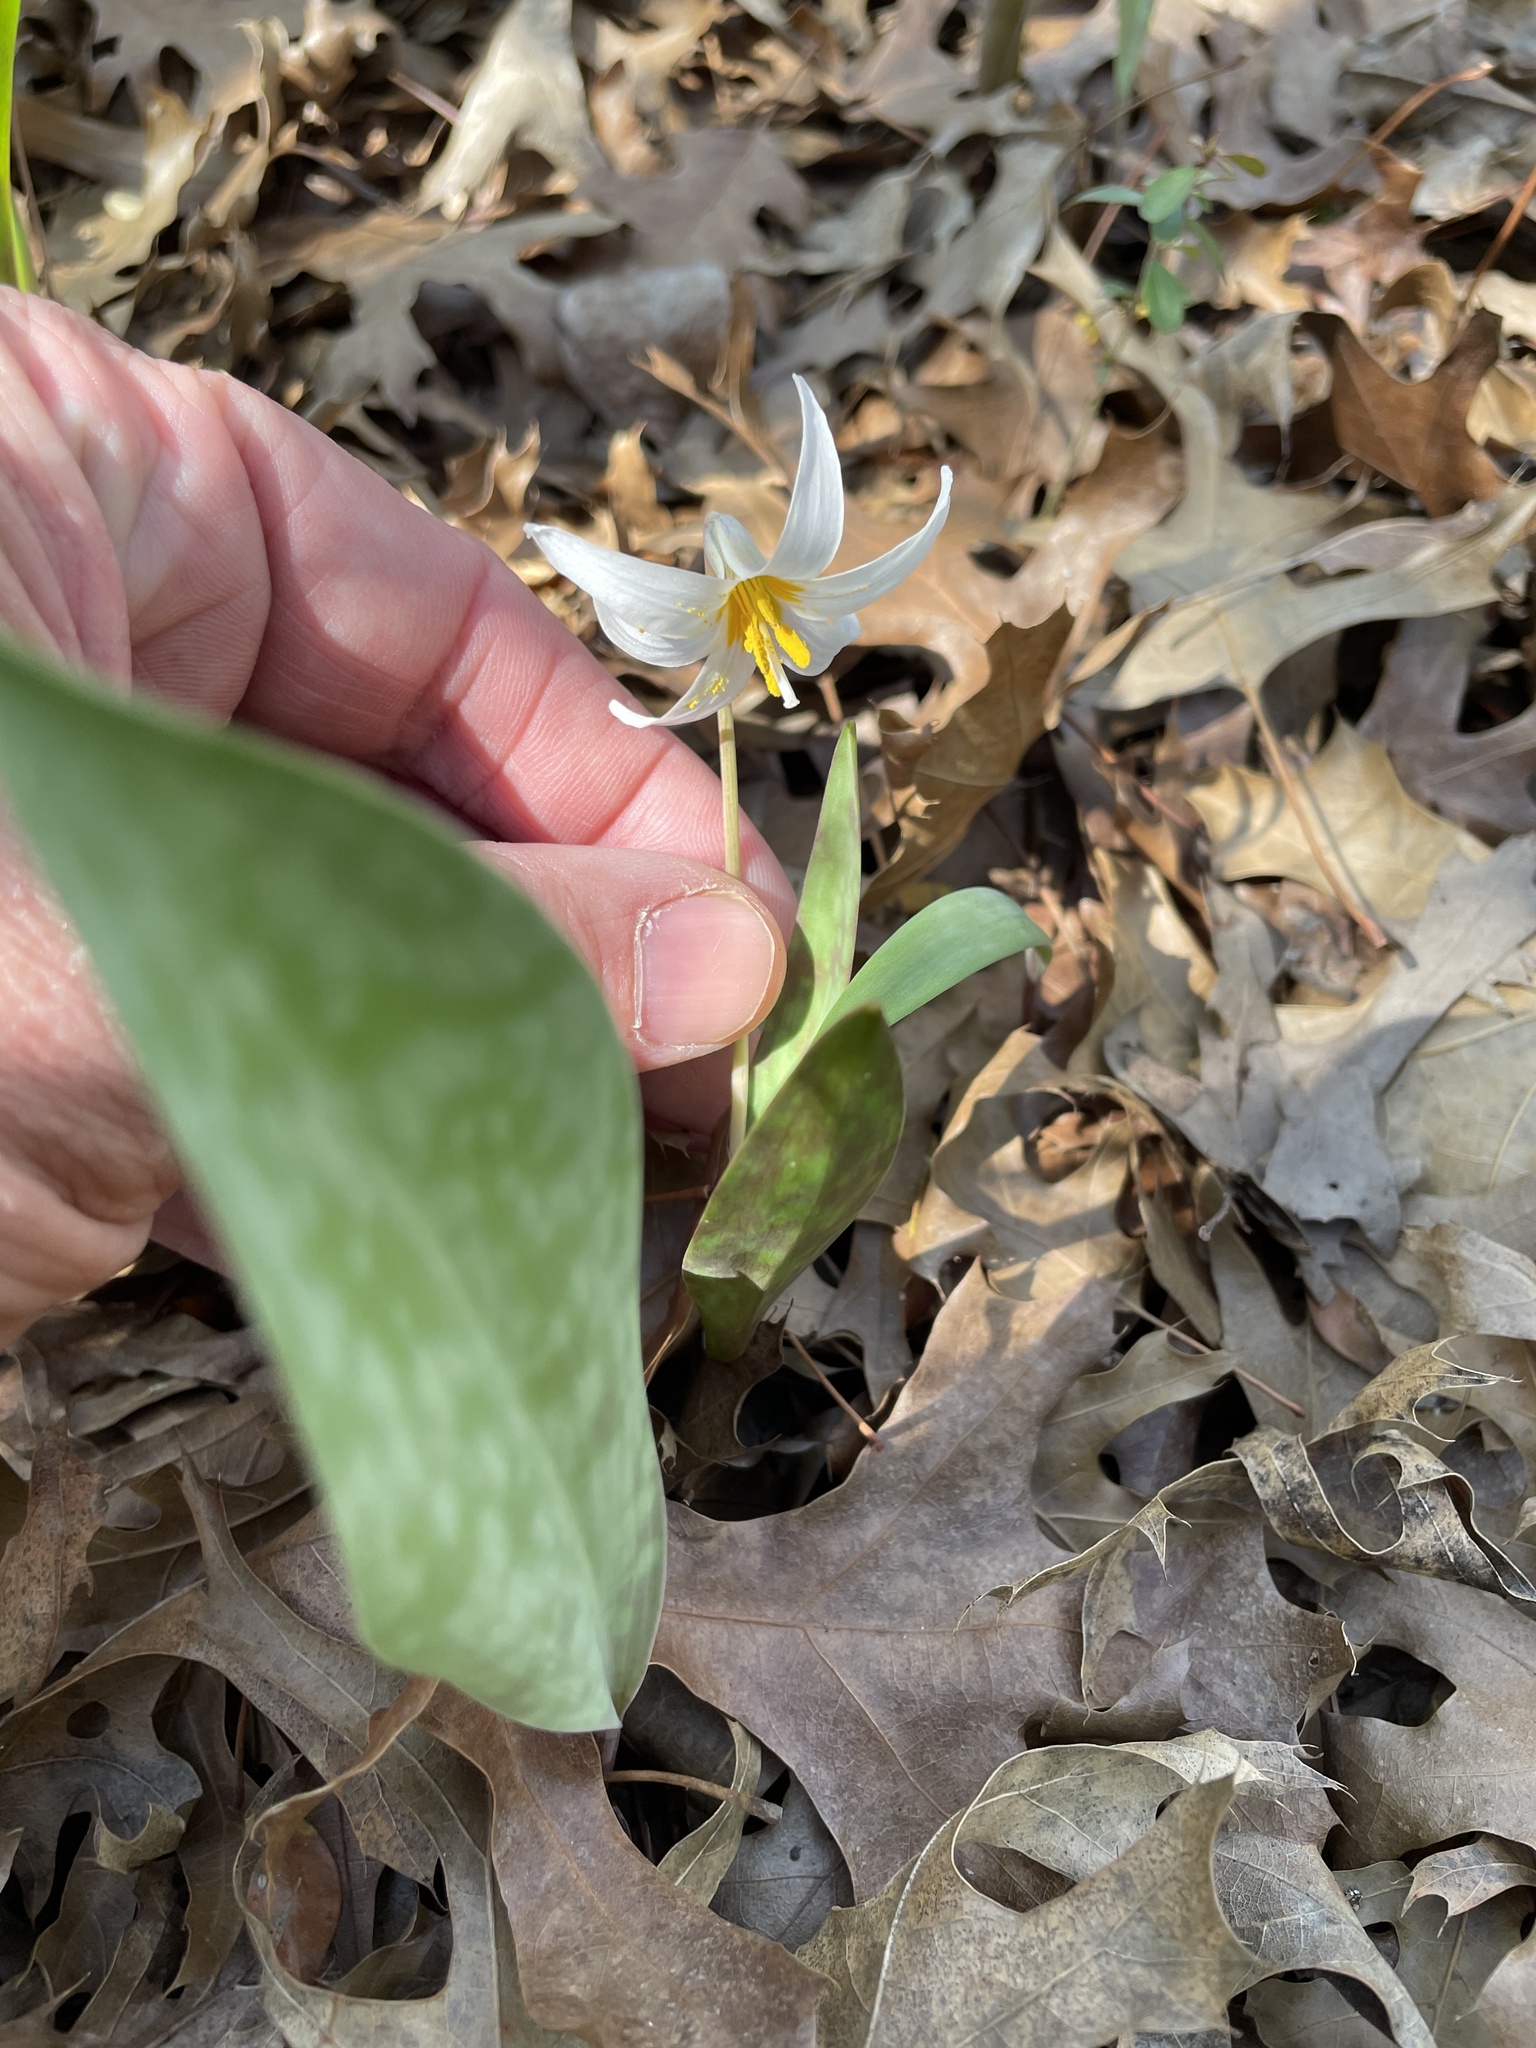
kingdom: Plantae
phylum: Tracheophyta
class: Liliopsida
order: Liliales
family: Liliaceae
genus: Erythronium
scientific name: Erythronium albidum
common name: White trout-lily
